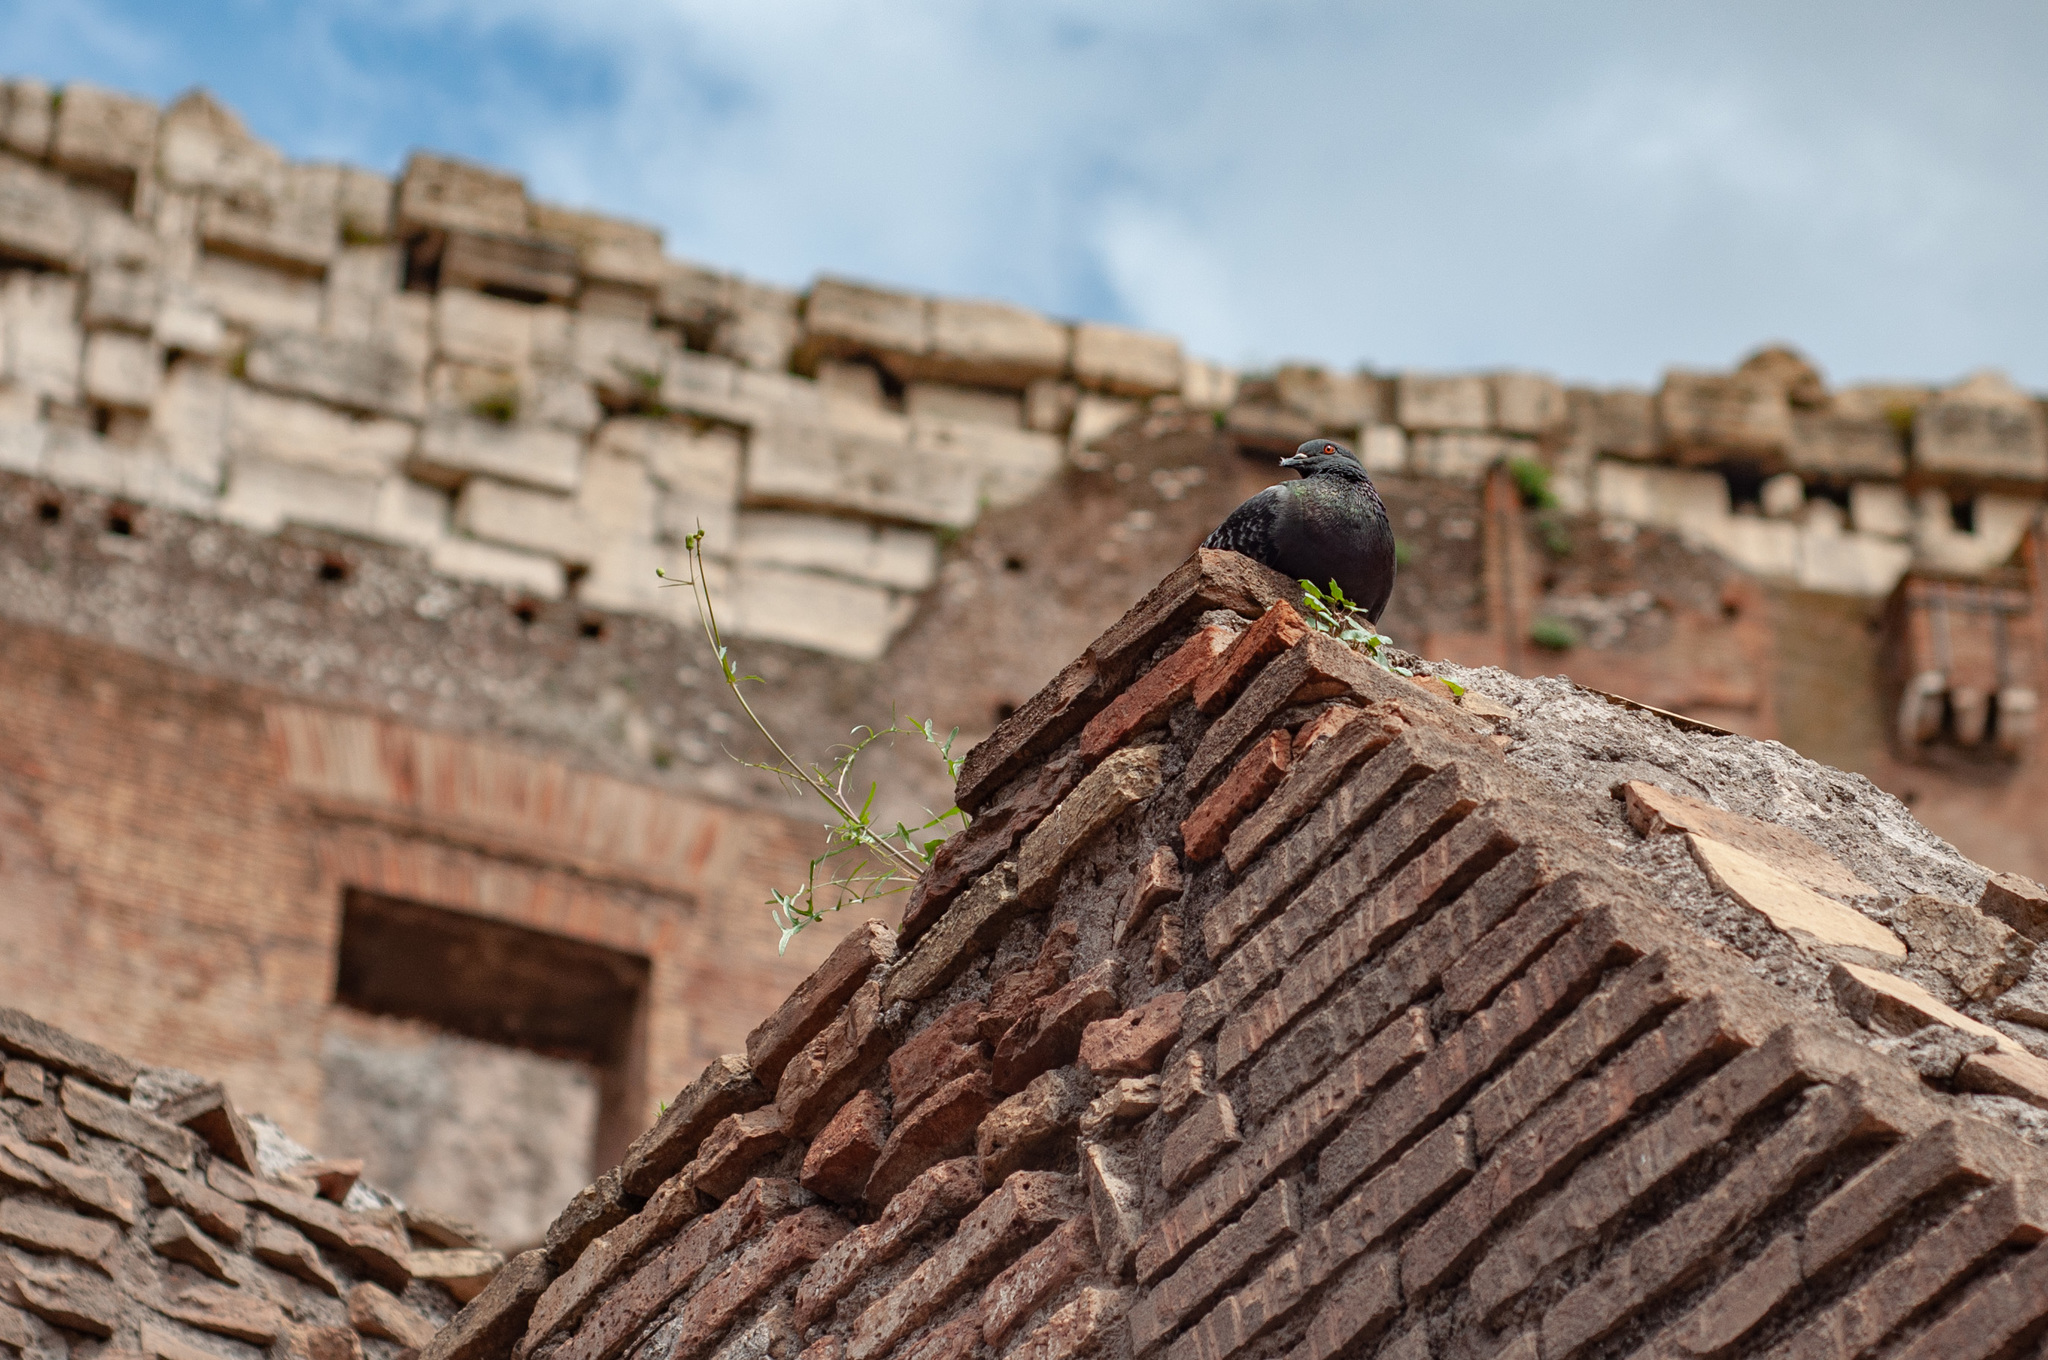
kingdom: Animalia
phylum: Chordata
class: Aves
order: Columbiformes
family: Columbidae
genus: Columba
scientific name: Columba livia
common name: Rock pigeon
